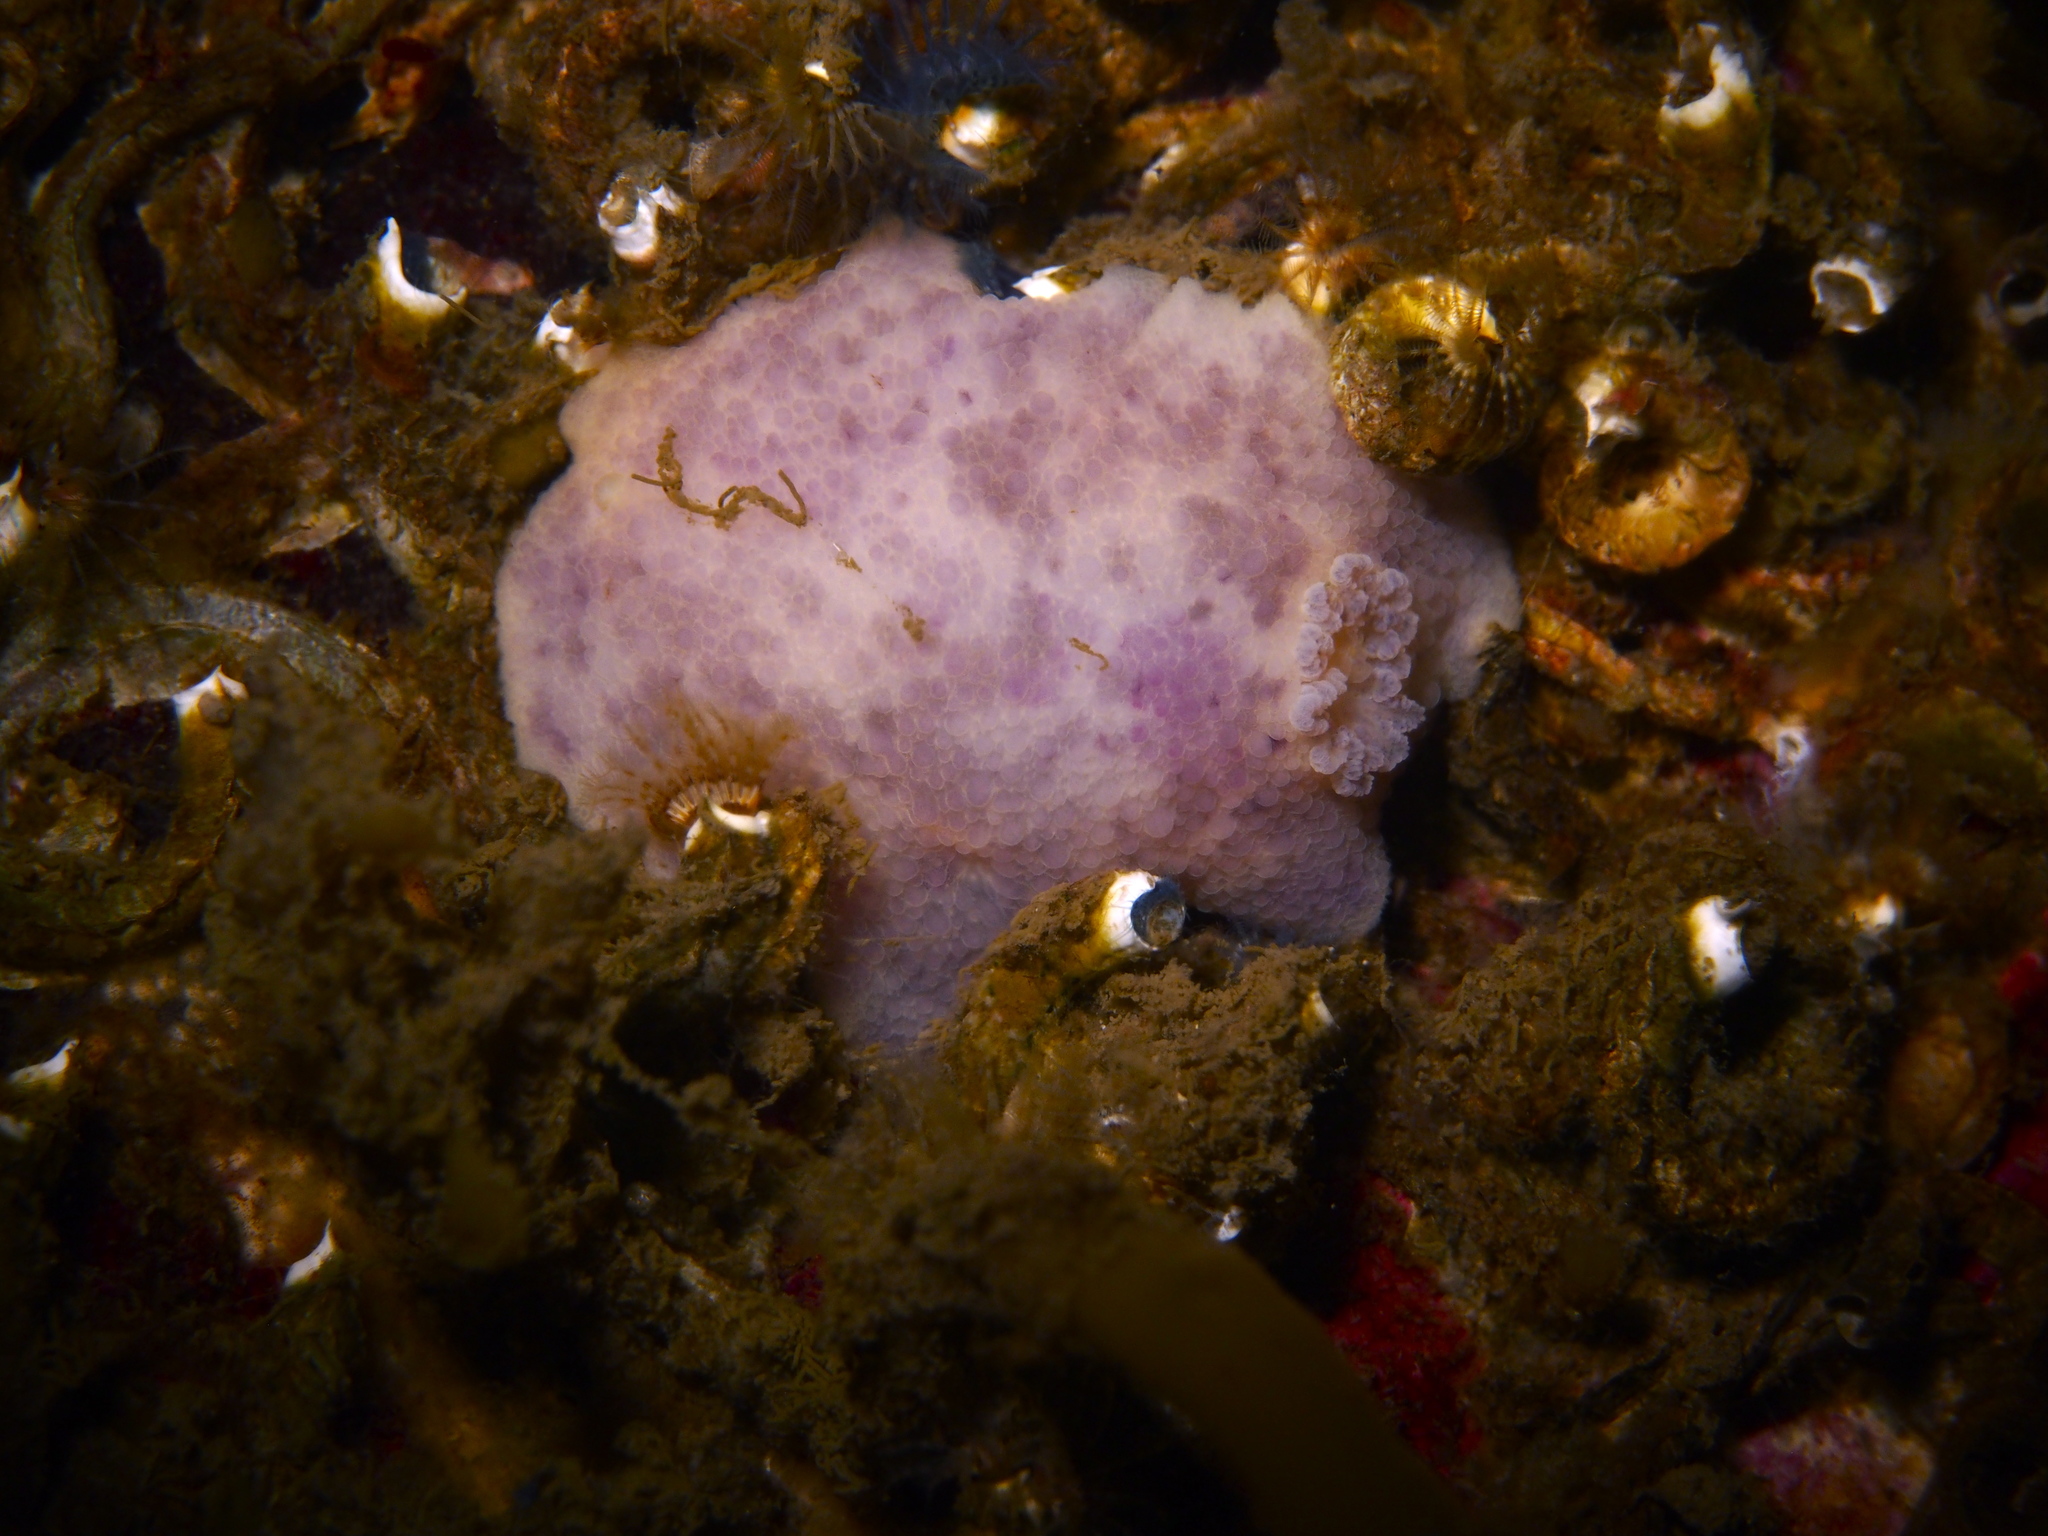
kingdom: Animalia
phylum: Mollusca
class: Gastropoda
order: Nudibranchia
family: Dorididae
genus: Doris
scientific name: Doris pseudoargus
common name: Sea lemon
